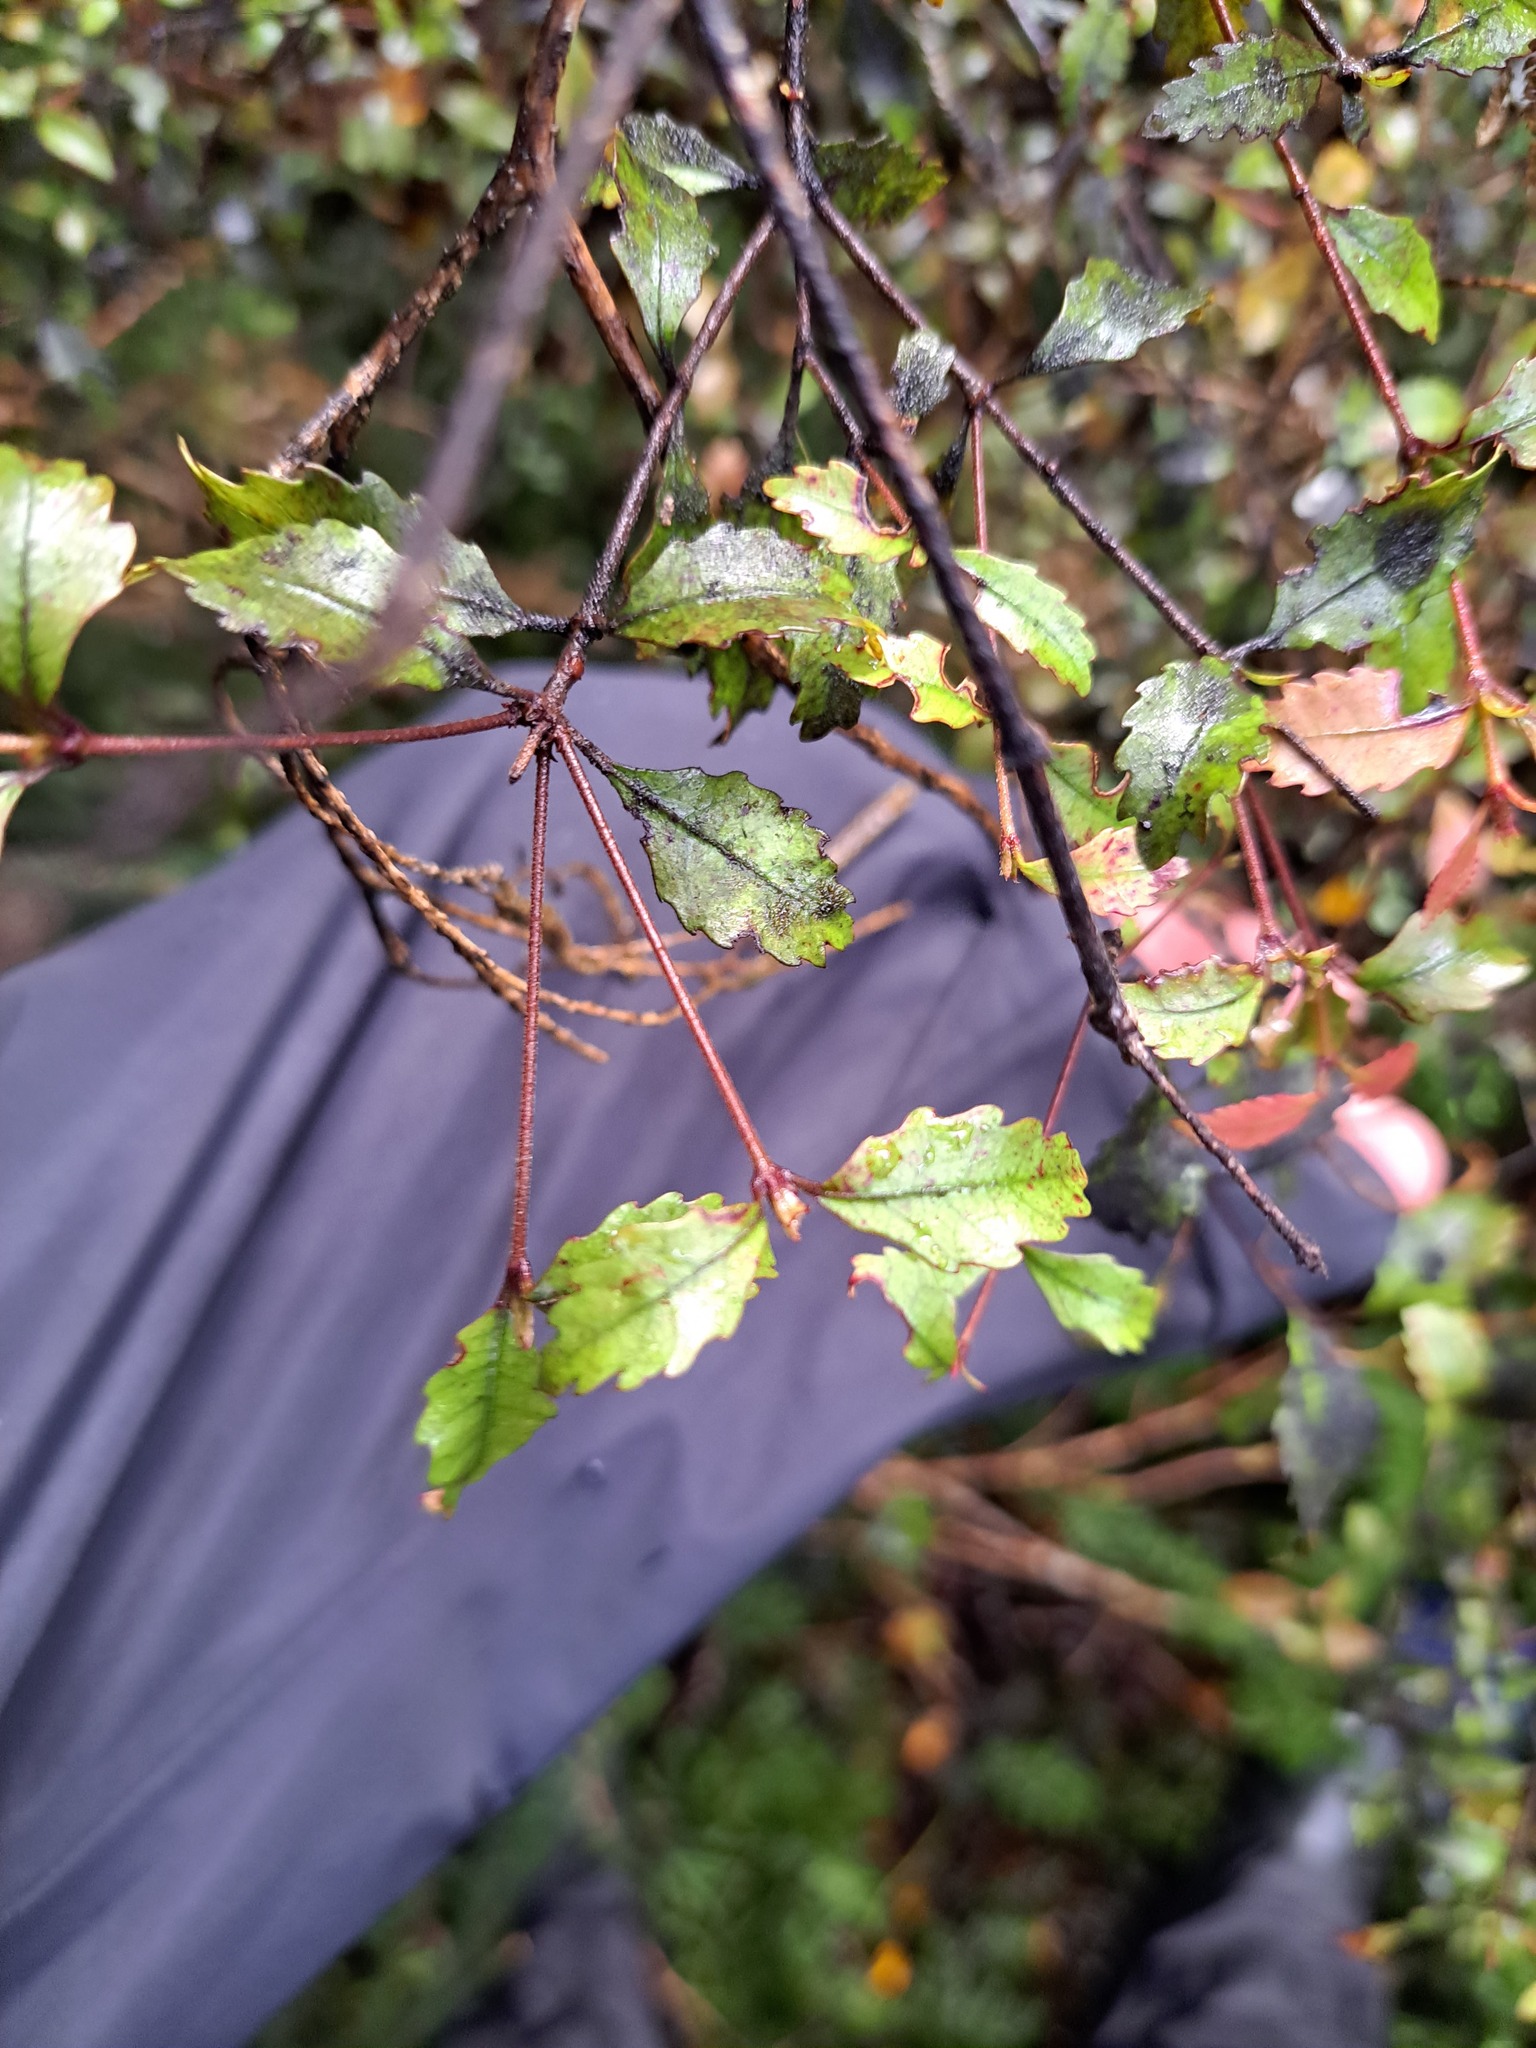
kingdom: Plantae
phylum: Tracheophyta
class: Magnoliopsida
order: Oxalidales
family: Cunoniaceae
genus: Pterophylla
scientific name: Pterophylla racemosa
